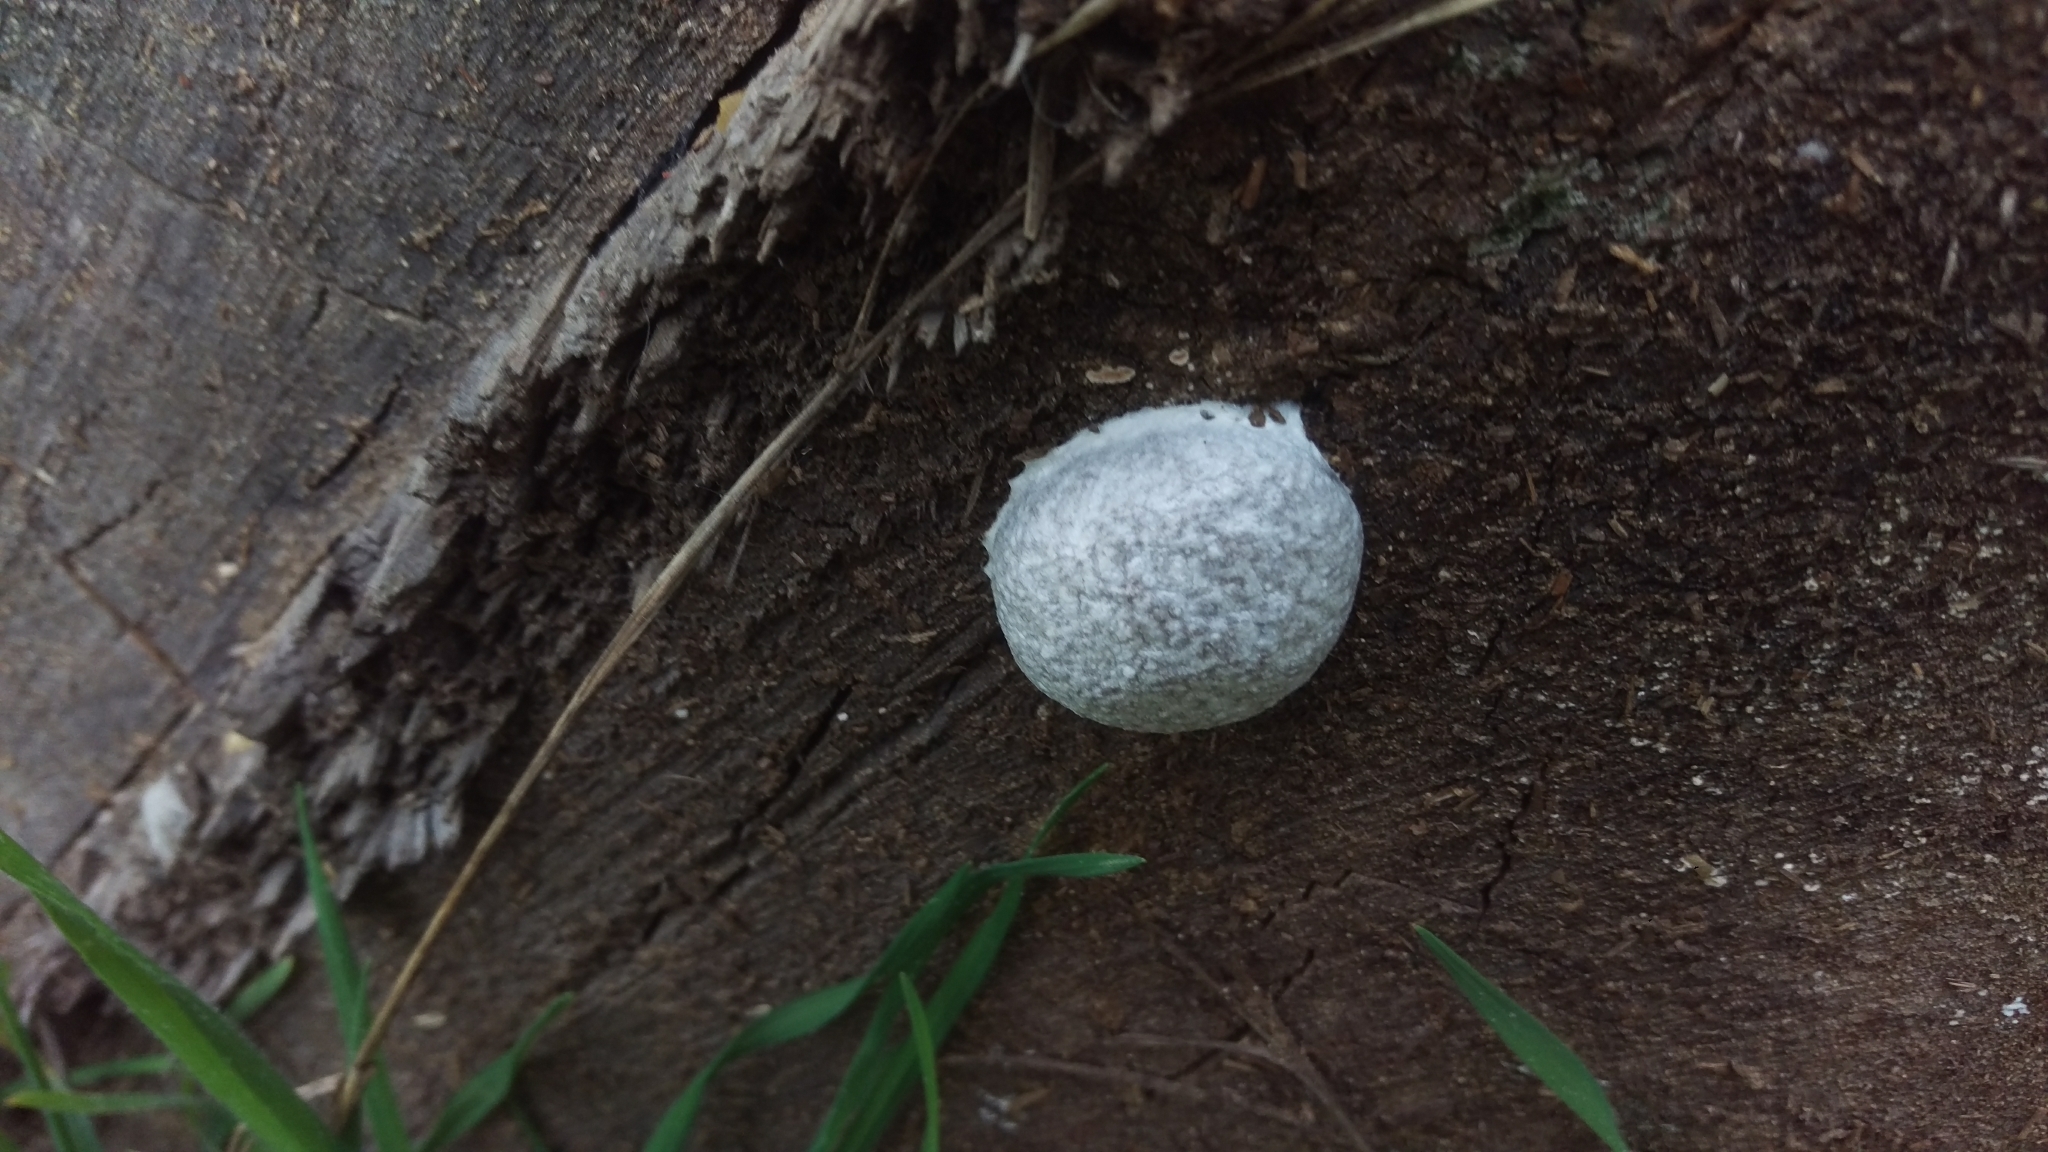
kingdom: Protozoa
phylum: Mycetozoa
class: Myxomycetes
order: Cribrariales
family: Tubiferaceae
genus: Reticularia
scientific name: Reticularia lycoperdon
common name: False puffball
